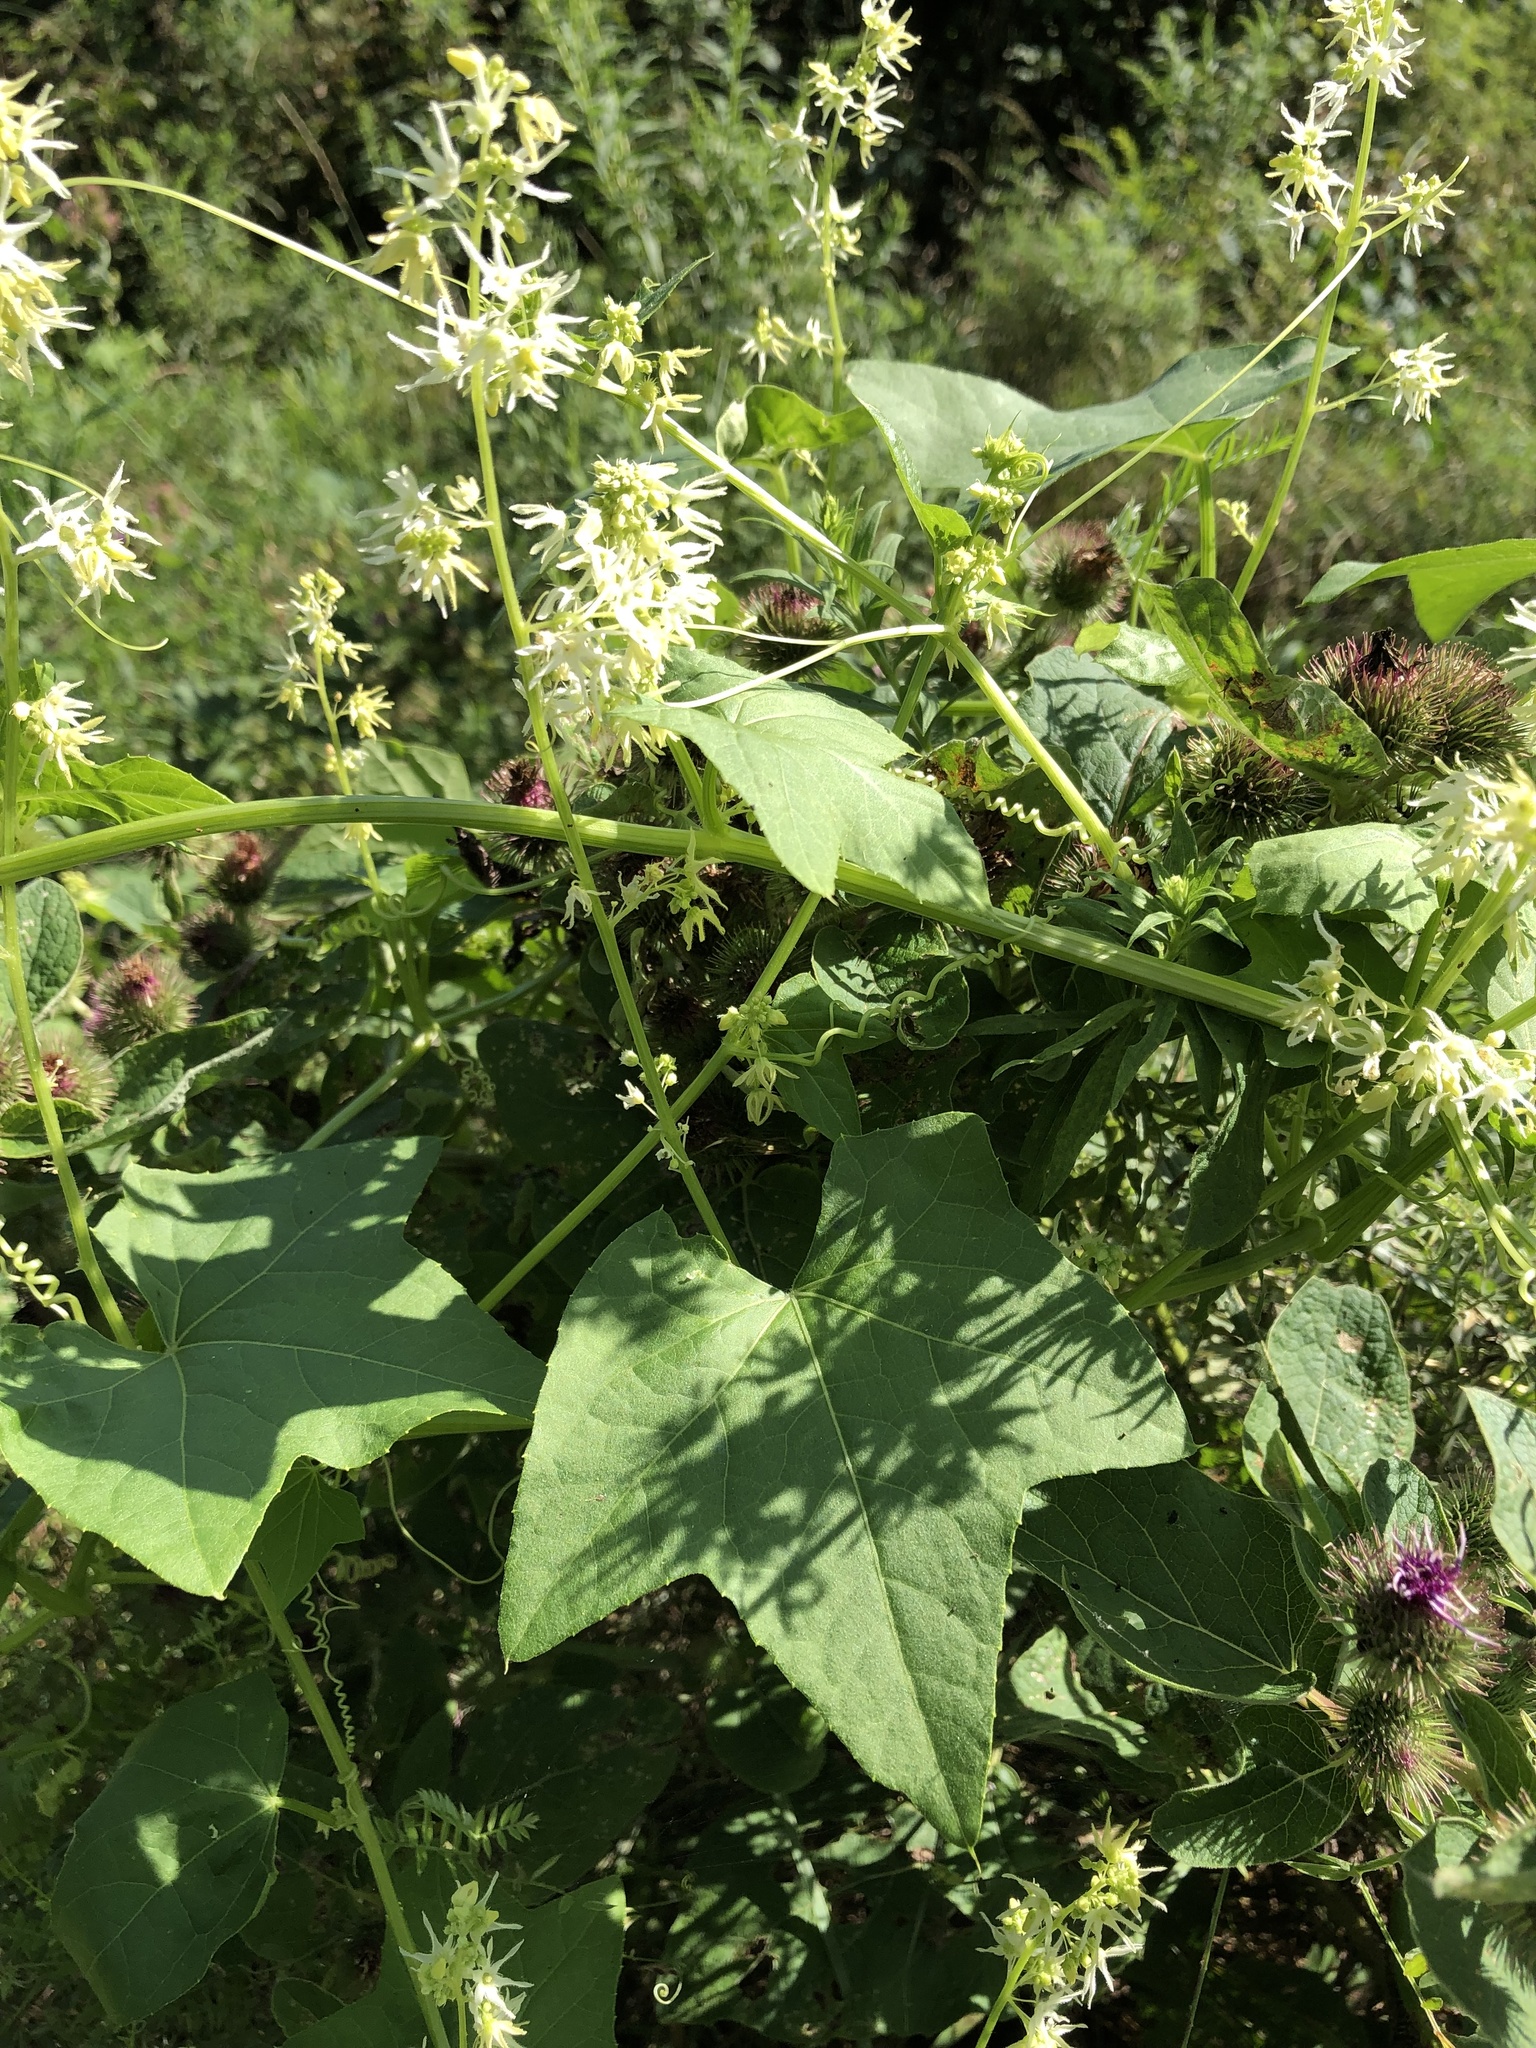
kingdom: Plantae
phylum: Tracheophyta
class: Magnoliopsida
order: Cucurbitales
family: Cucurbitaceae
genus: Echinocystis
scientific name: Echinocystis lobata
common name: Wild cucumber
